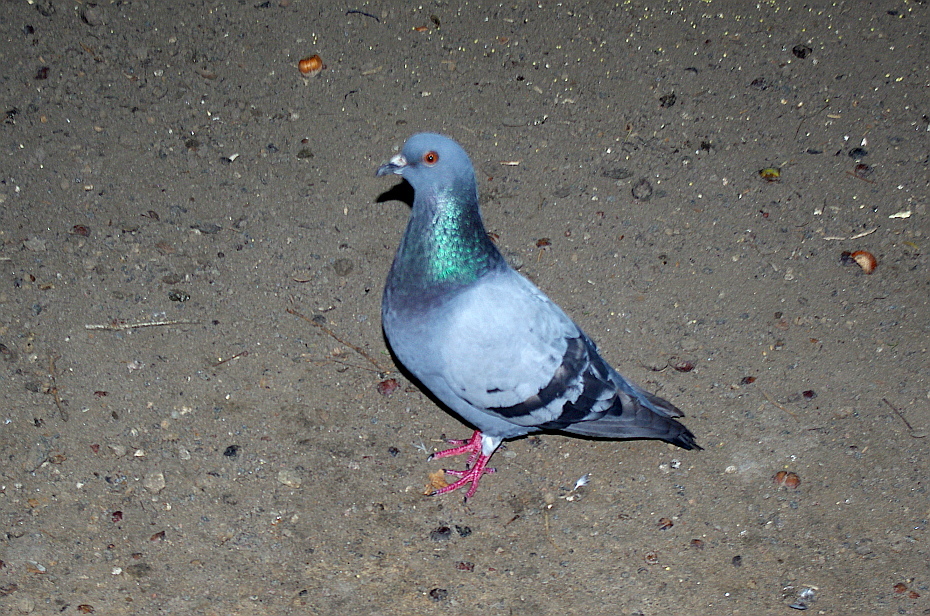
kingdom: Animalia
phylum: Chordata
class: Aves
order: Columbiformes
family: Columbidae
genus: Columba
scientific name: Columba livia
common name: Rock pigeon
